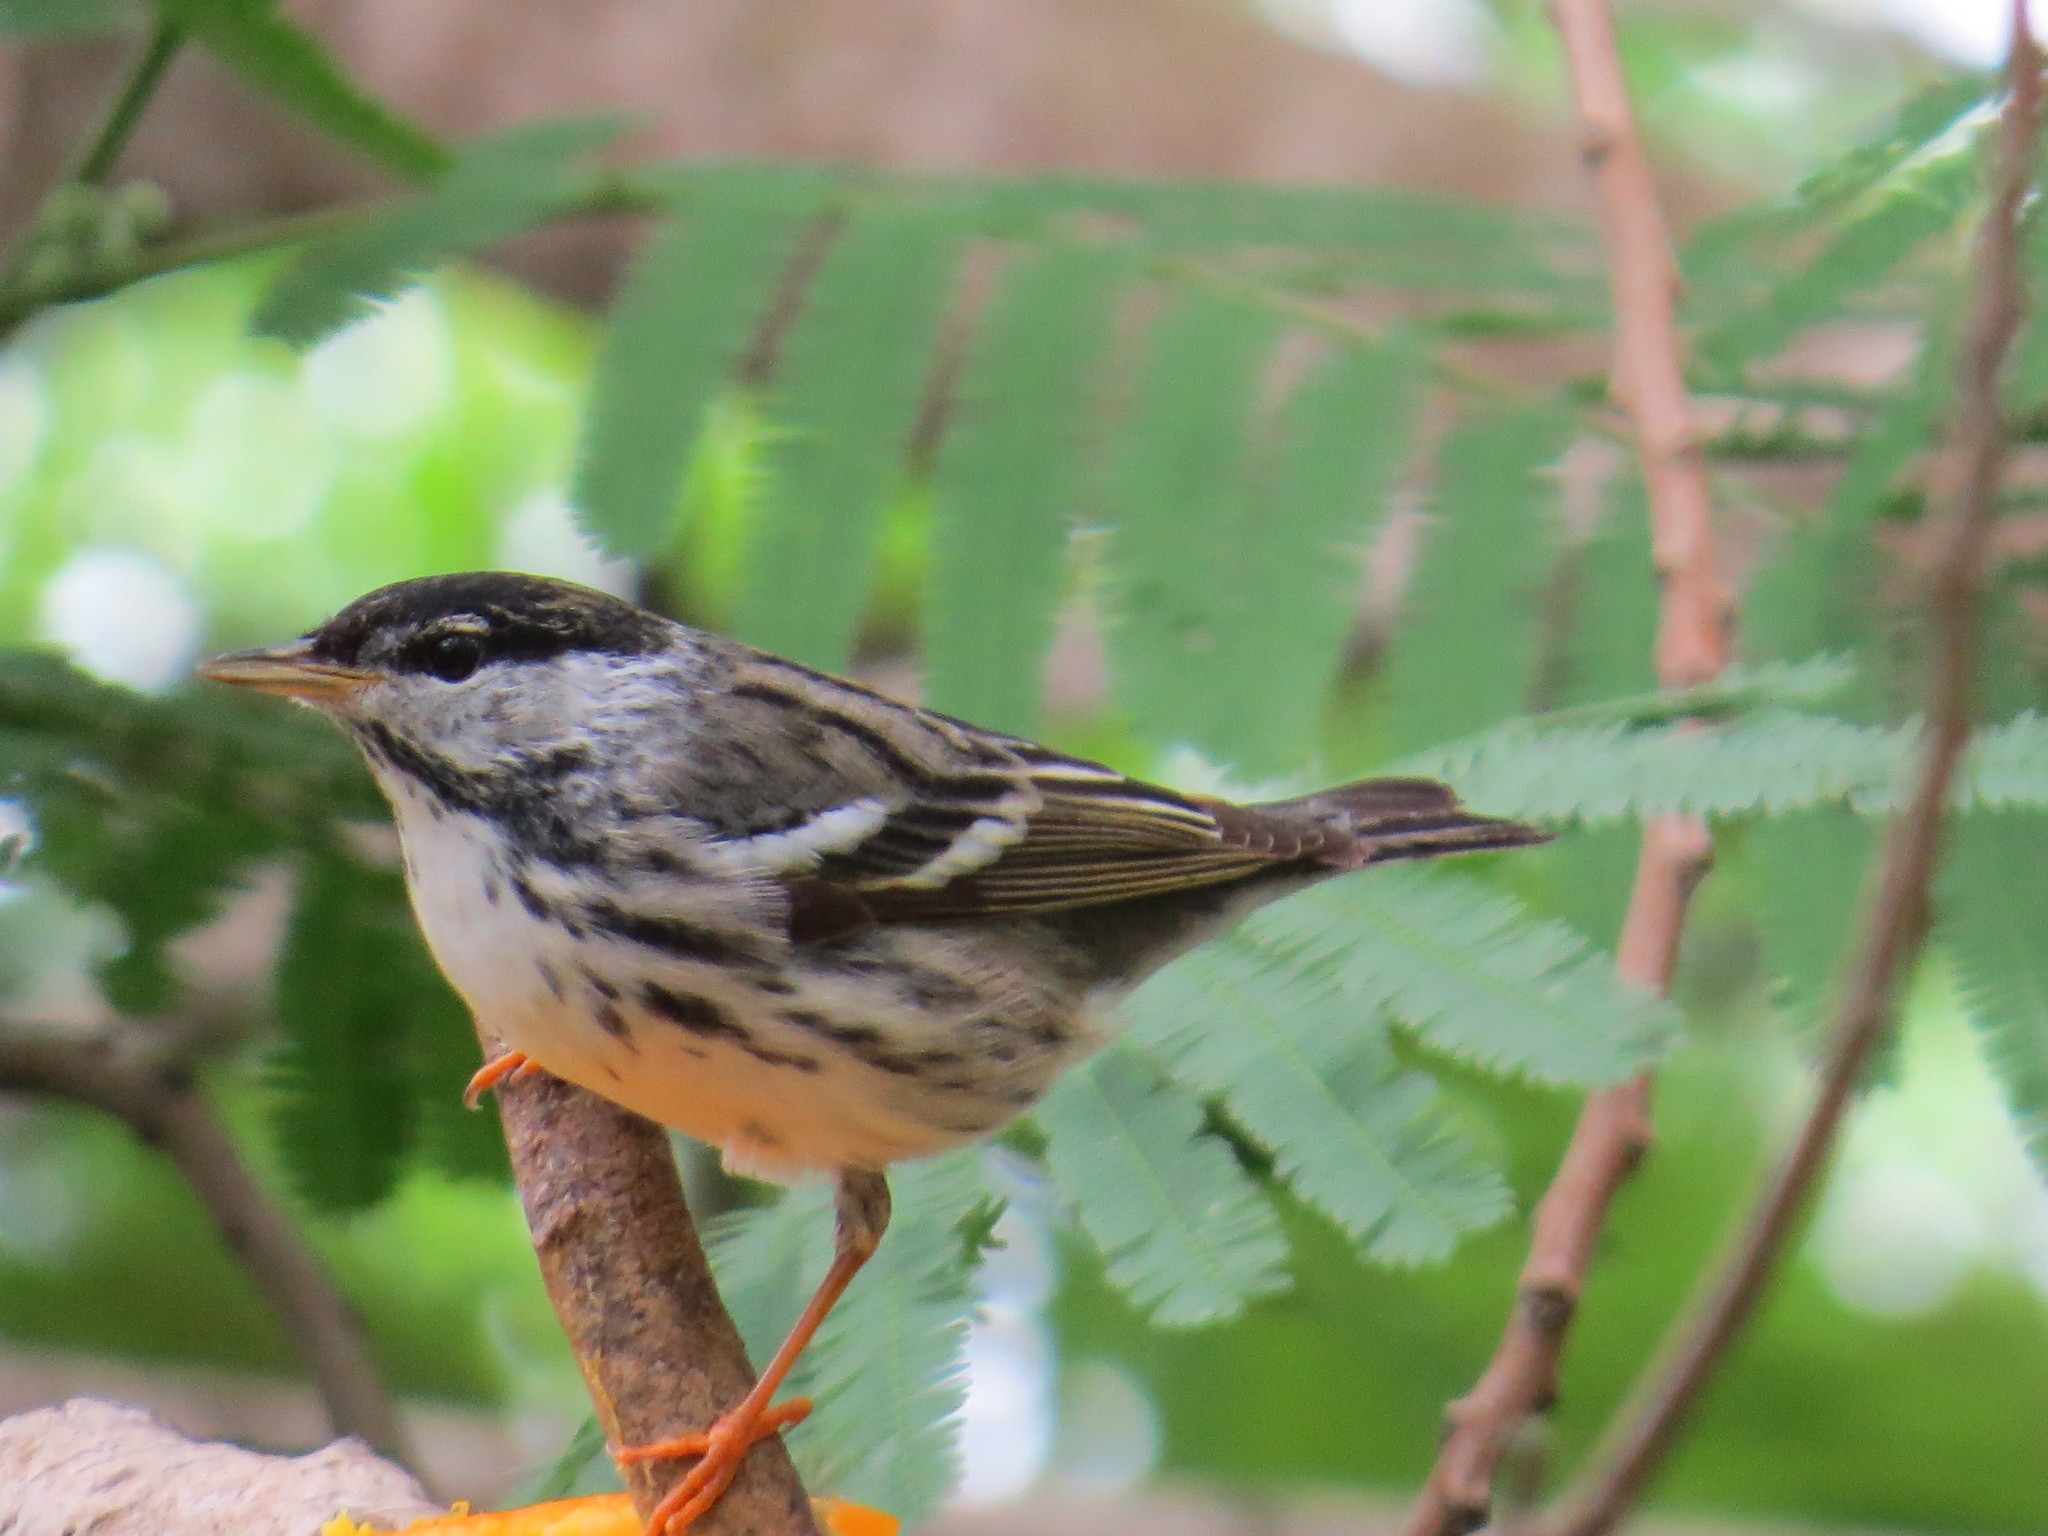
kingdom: Animalia
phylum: Chordata
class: Aves
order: Passeriformes
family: Parulidae
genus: Setophaga
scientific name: Setophaga striata
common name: Blackpoll warbler
